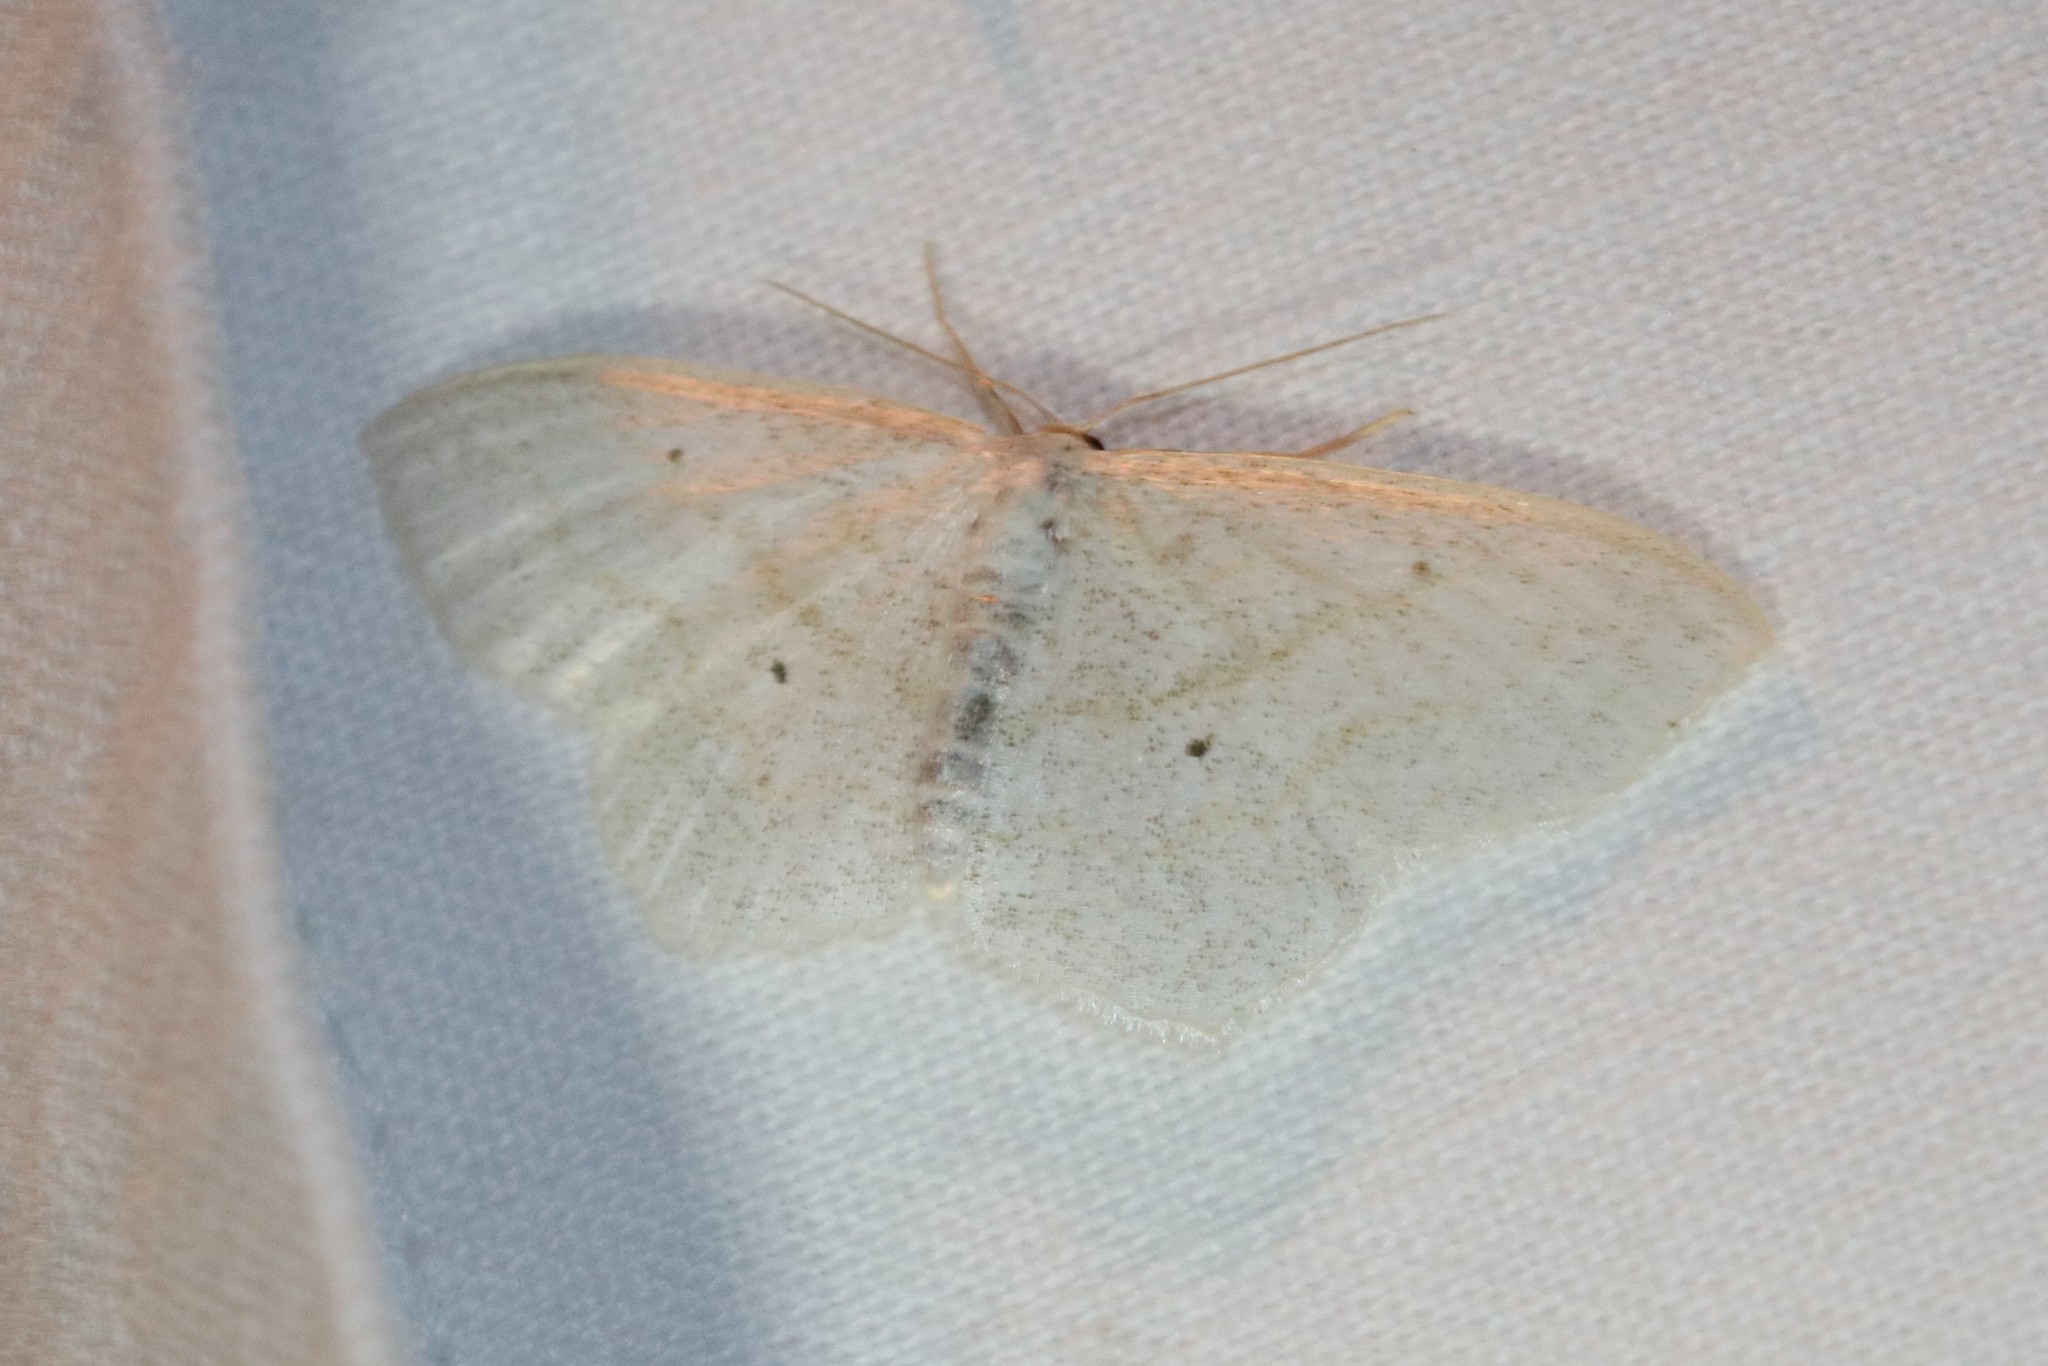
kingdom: Animalia
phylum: Arthropoda
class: Insecta
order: Lepidoptera
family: Geometridae
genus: Scopula
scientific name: Scopula limboundata
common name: Large lace border
